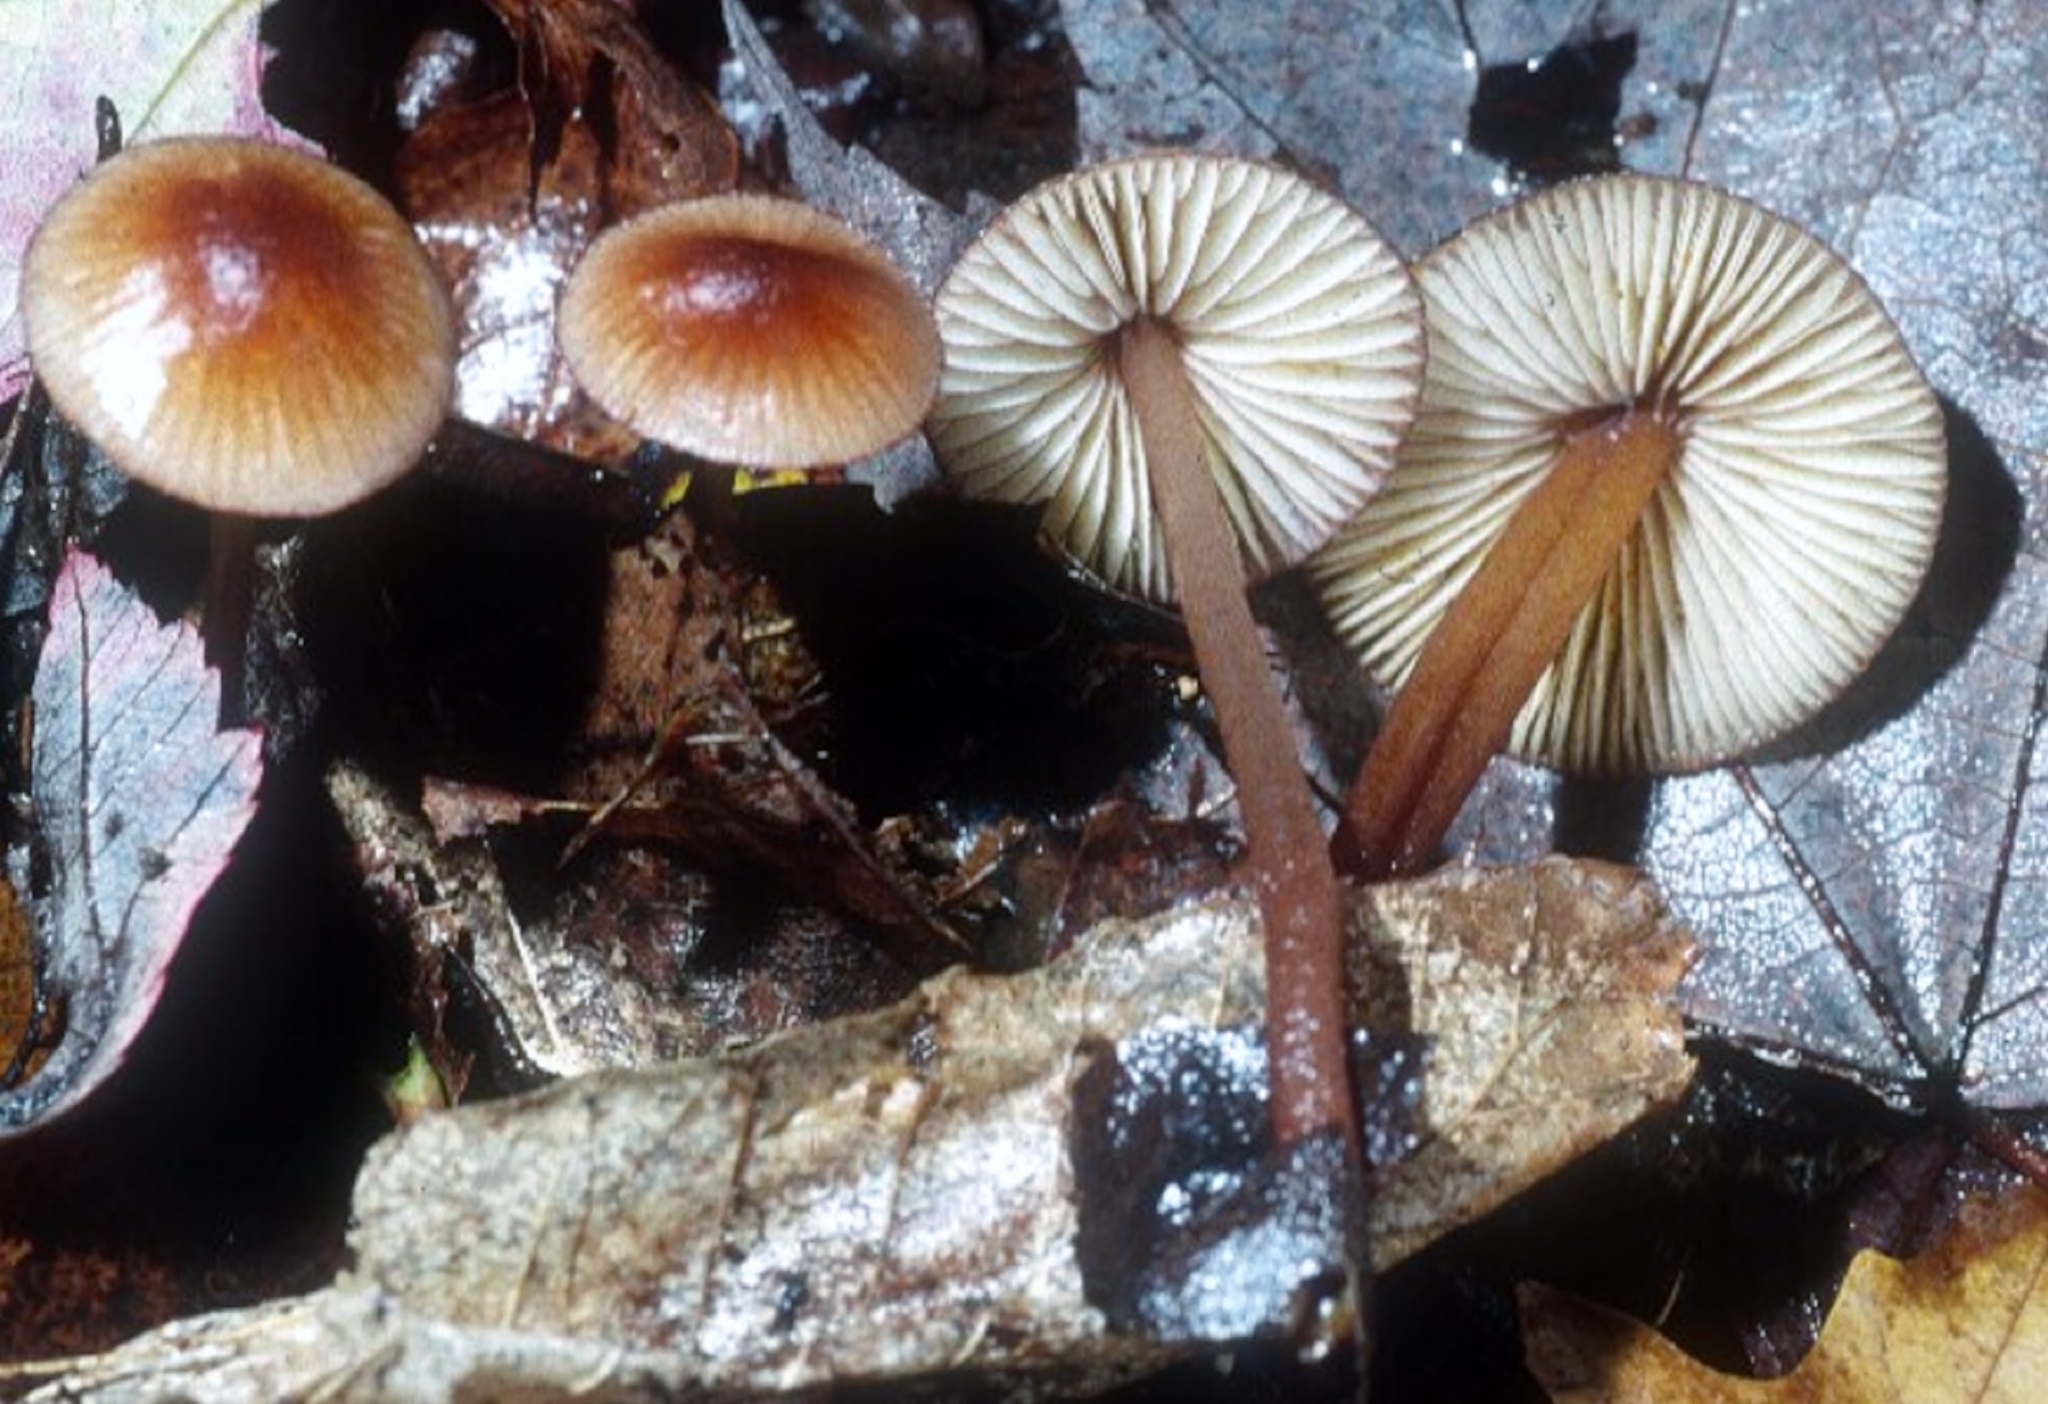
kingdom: Fungi
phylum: Basidiomycota
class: Agaricomycetes
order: Agaricales
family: Mycenaceae
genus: Mycena
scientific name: Mycena atkinsoniana
